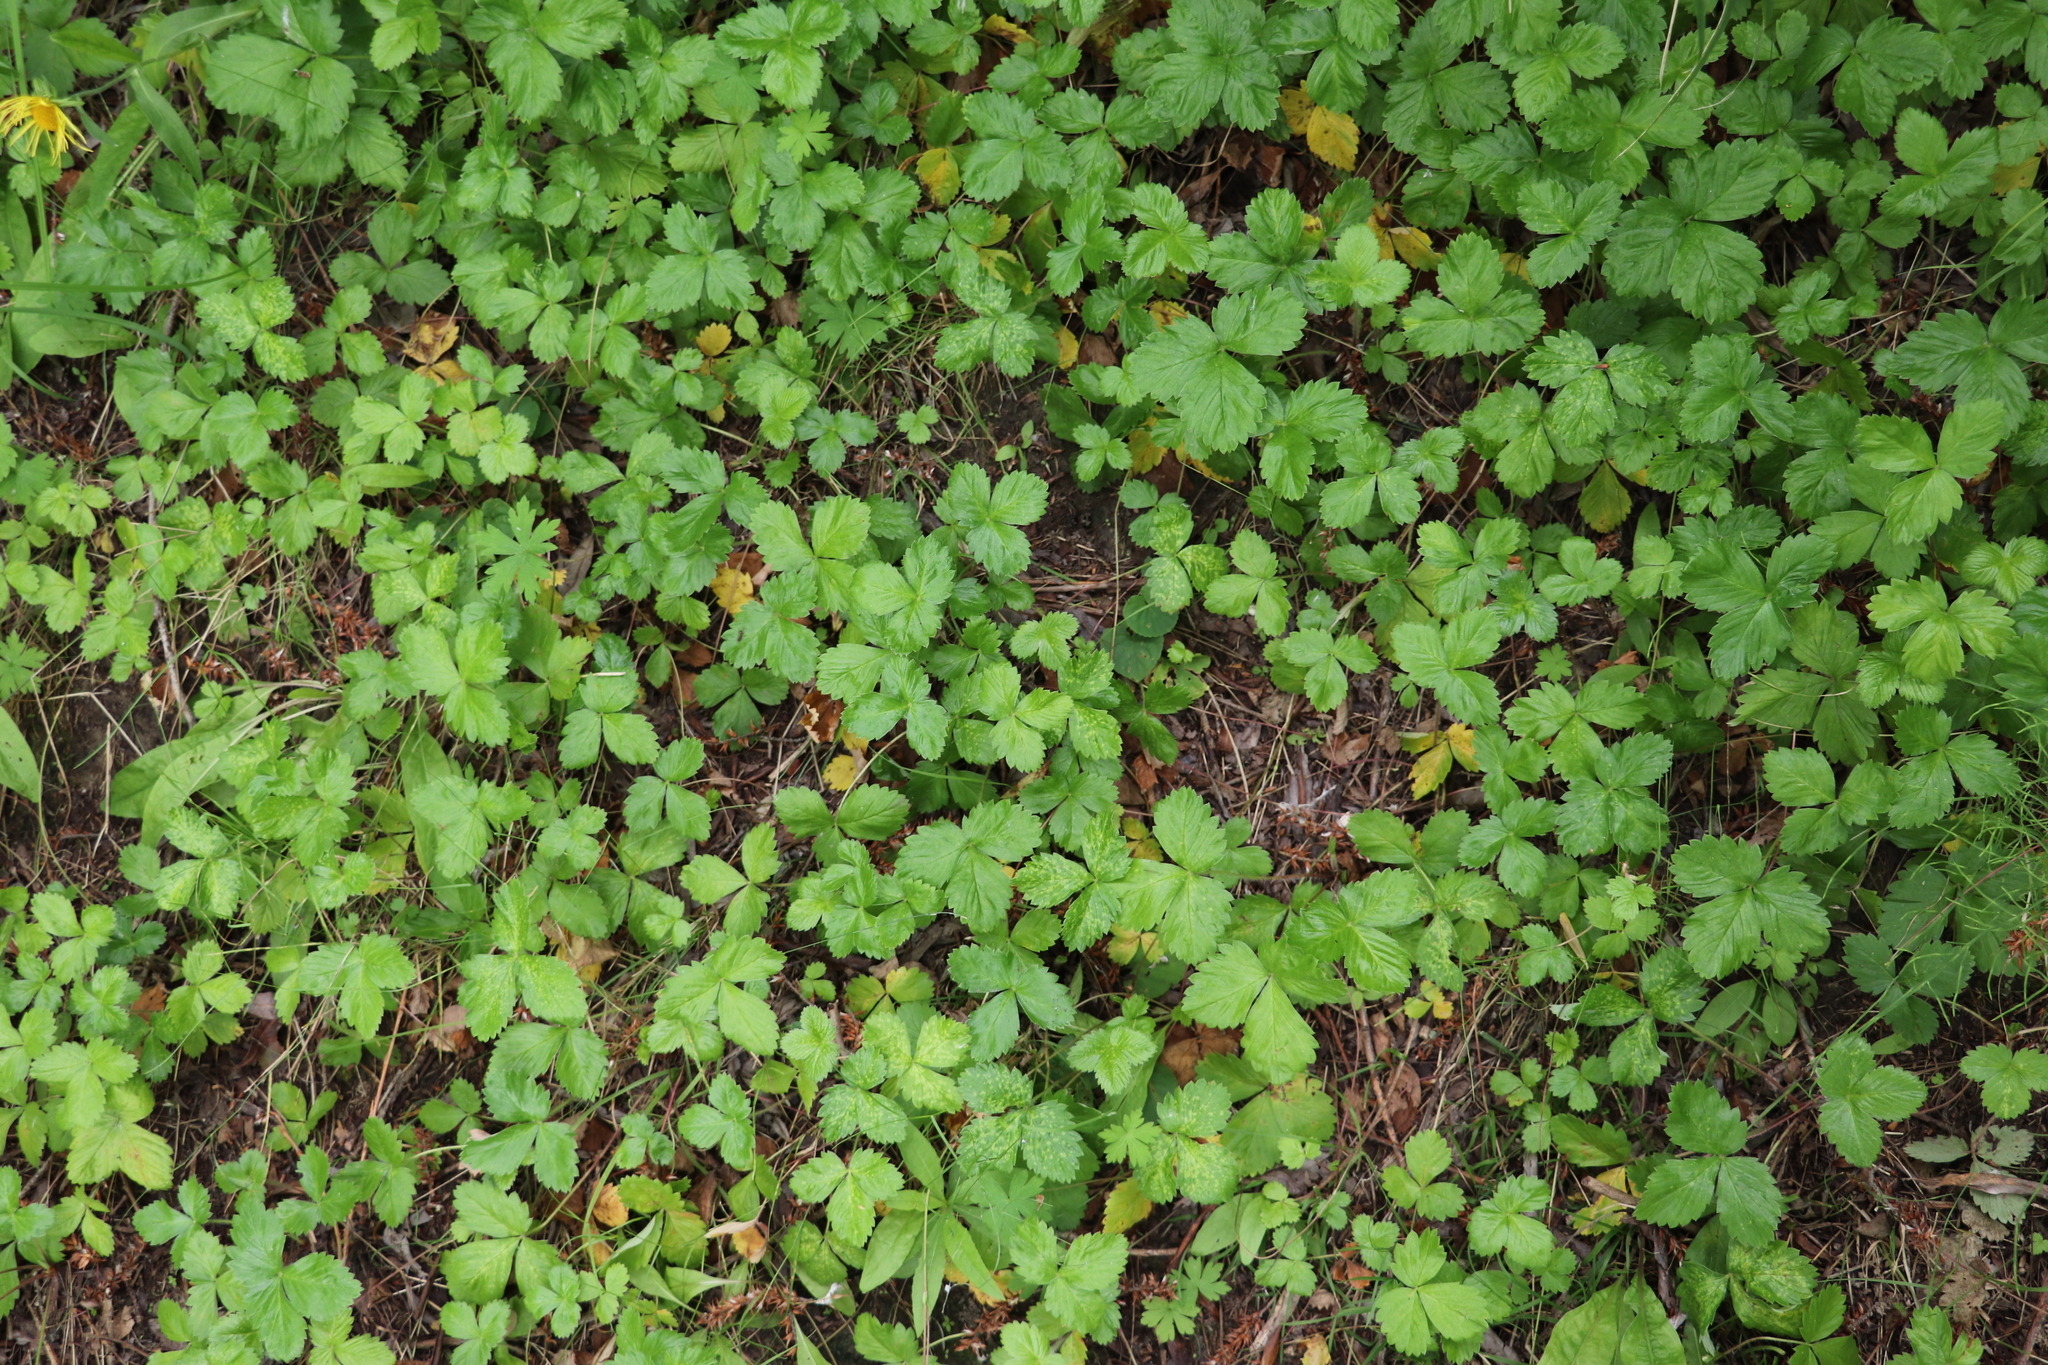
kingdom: Plantae
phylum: Tracheophyta
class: Magnoliopsida
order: Rosales
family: Rosaceae
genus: Fragaria
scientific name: Fragaria vesca
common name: Wild strawberry
